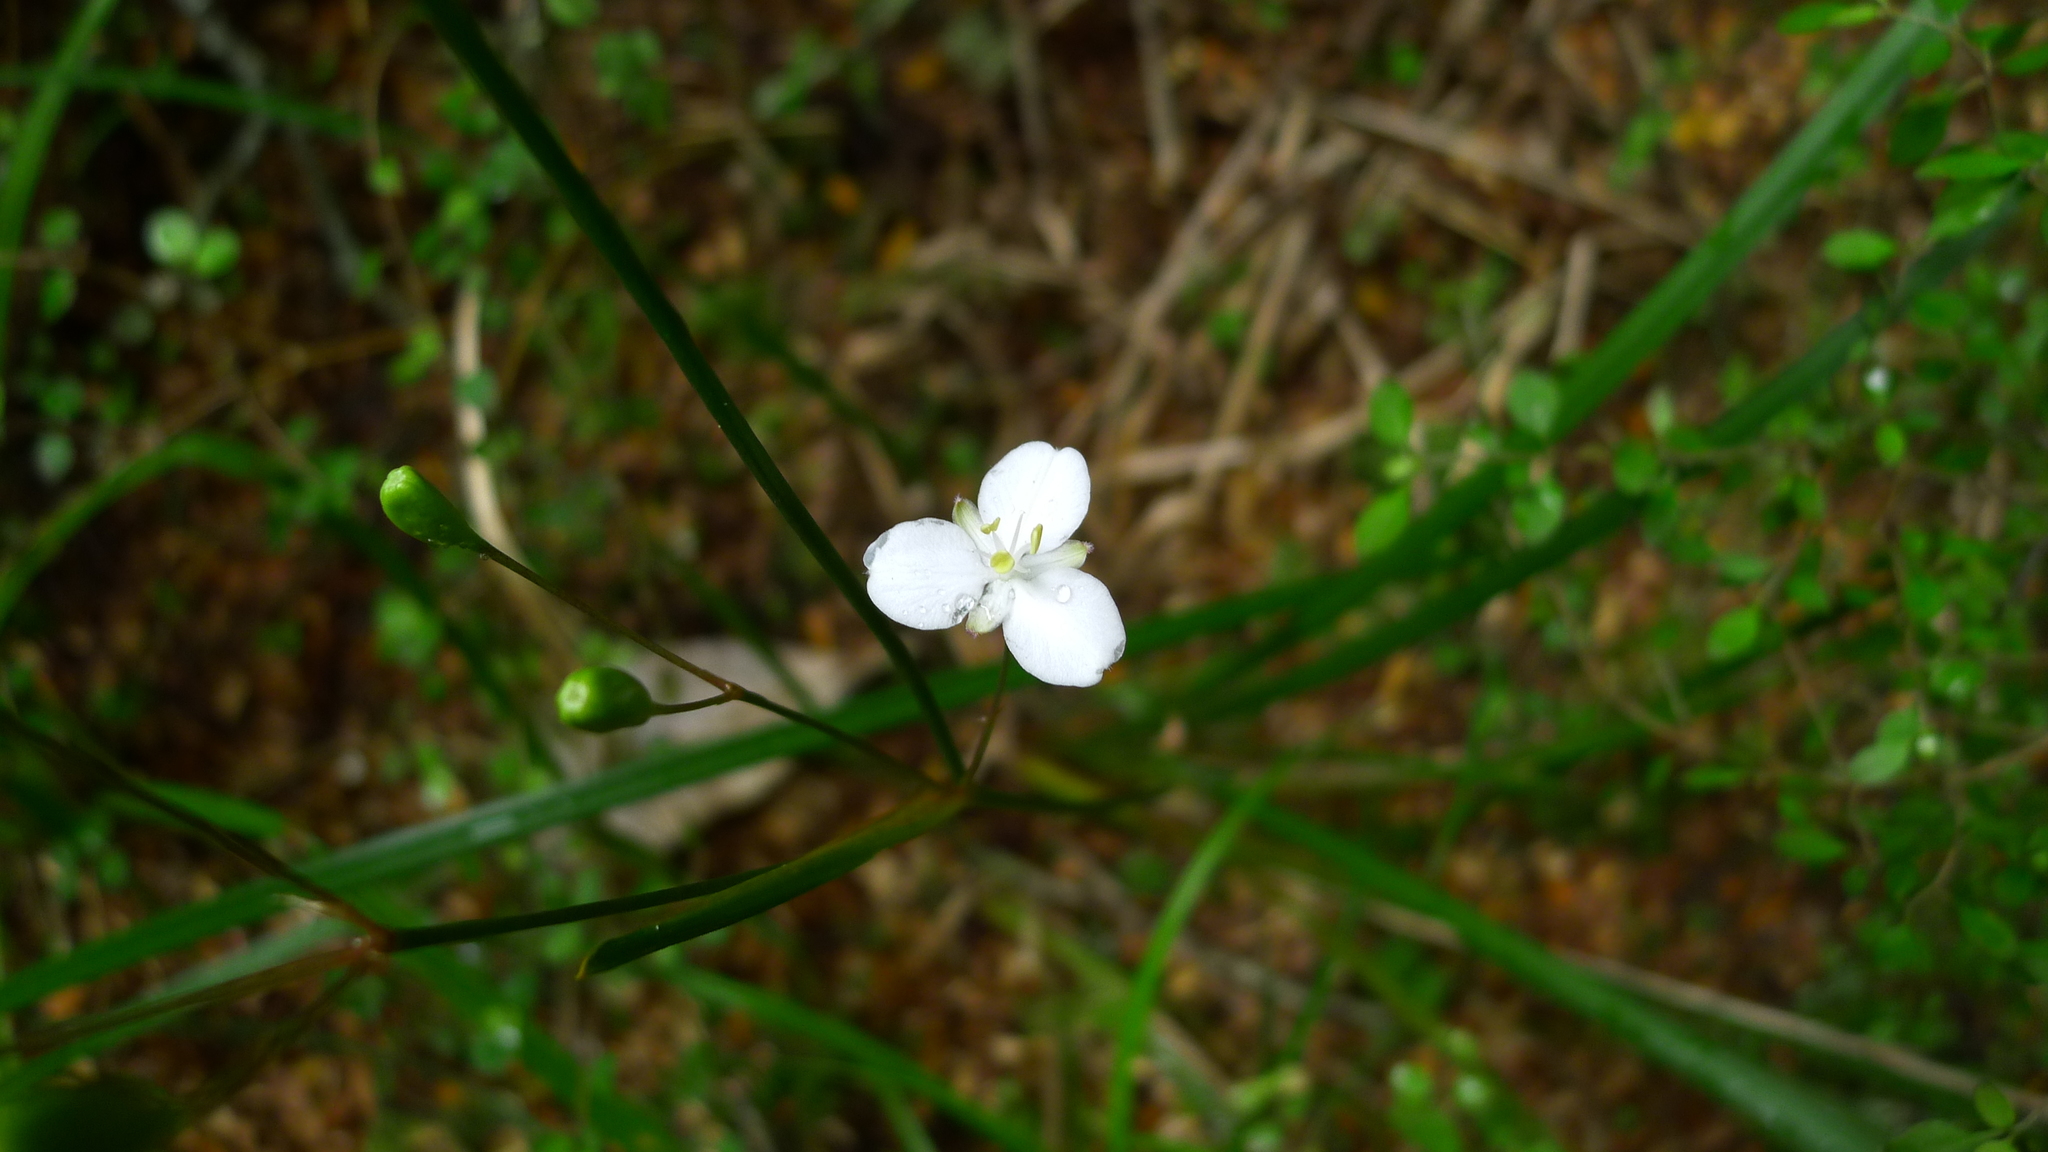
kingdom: Plantae
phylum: Tracheophyta
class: Liliopsida
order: Asparagales
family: Iridaceae
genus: Libertia
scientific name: Libertia ixioides
